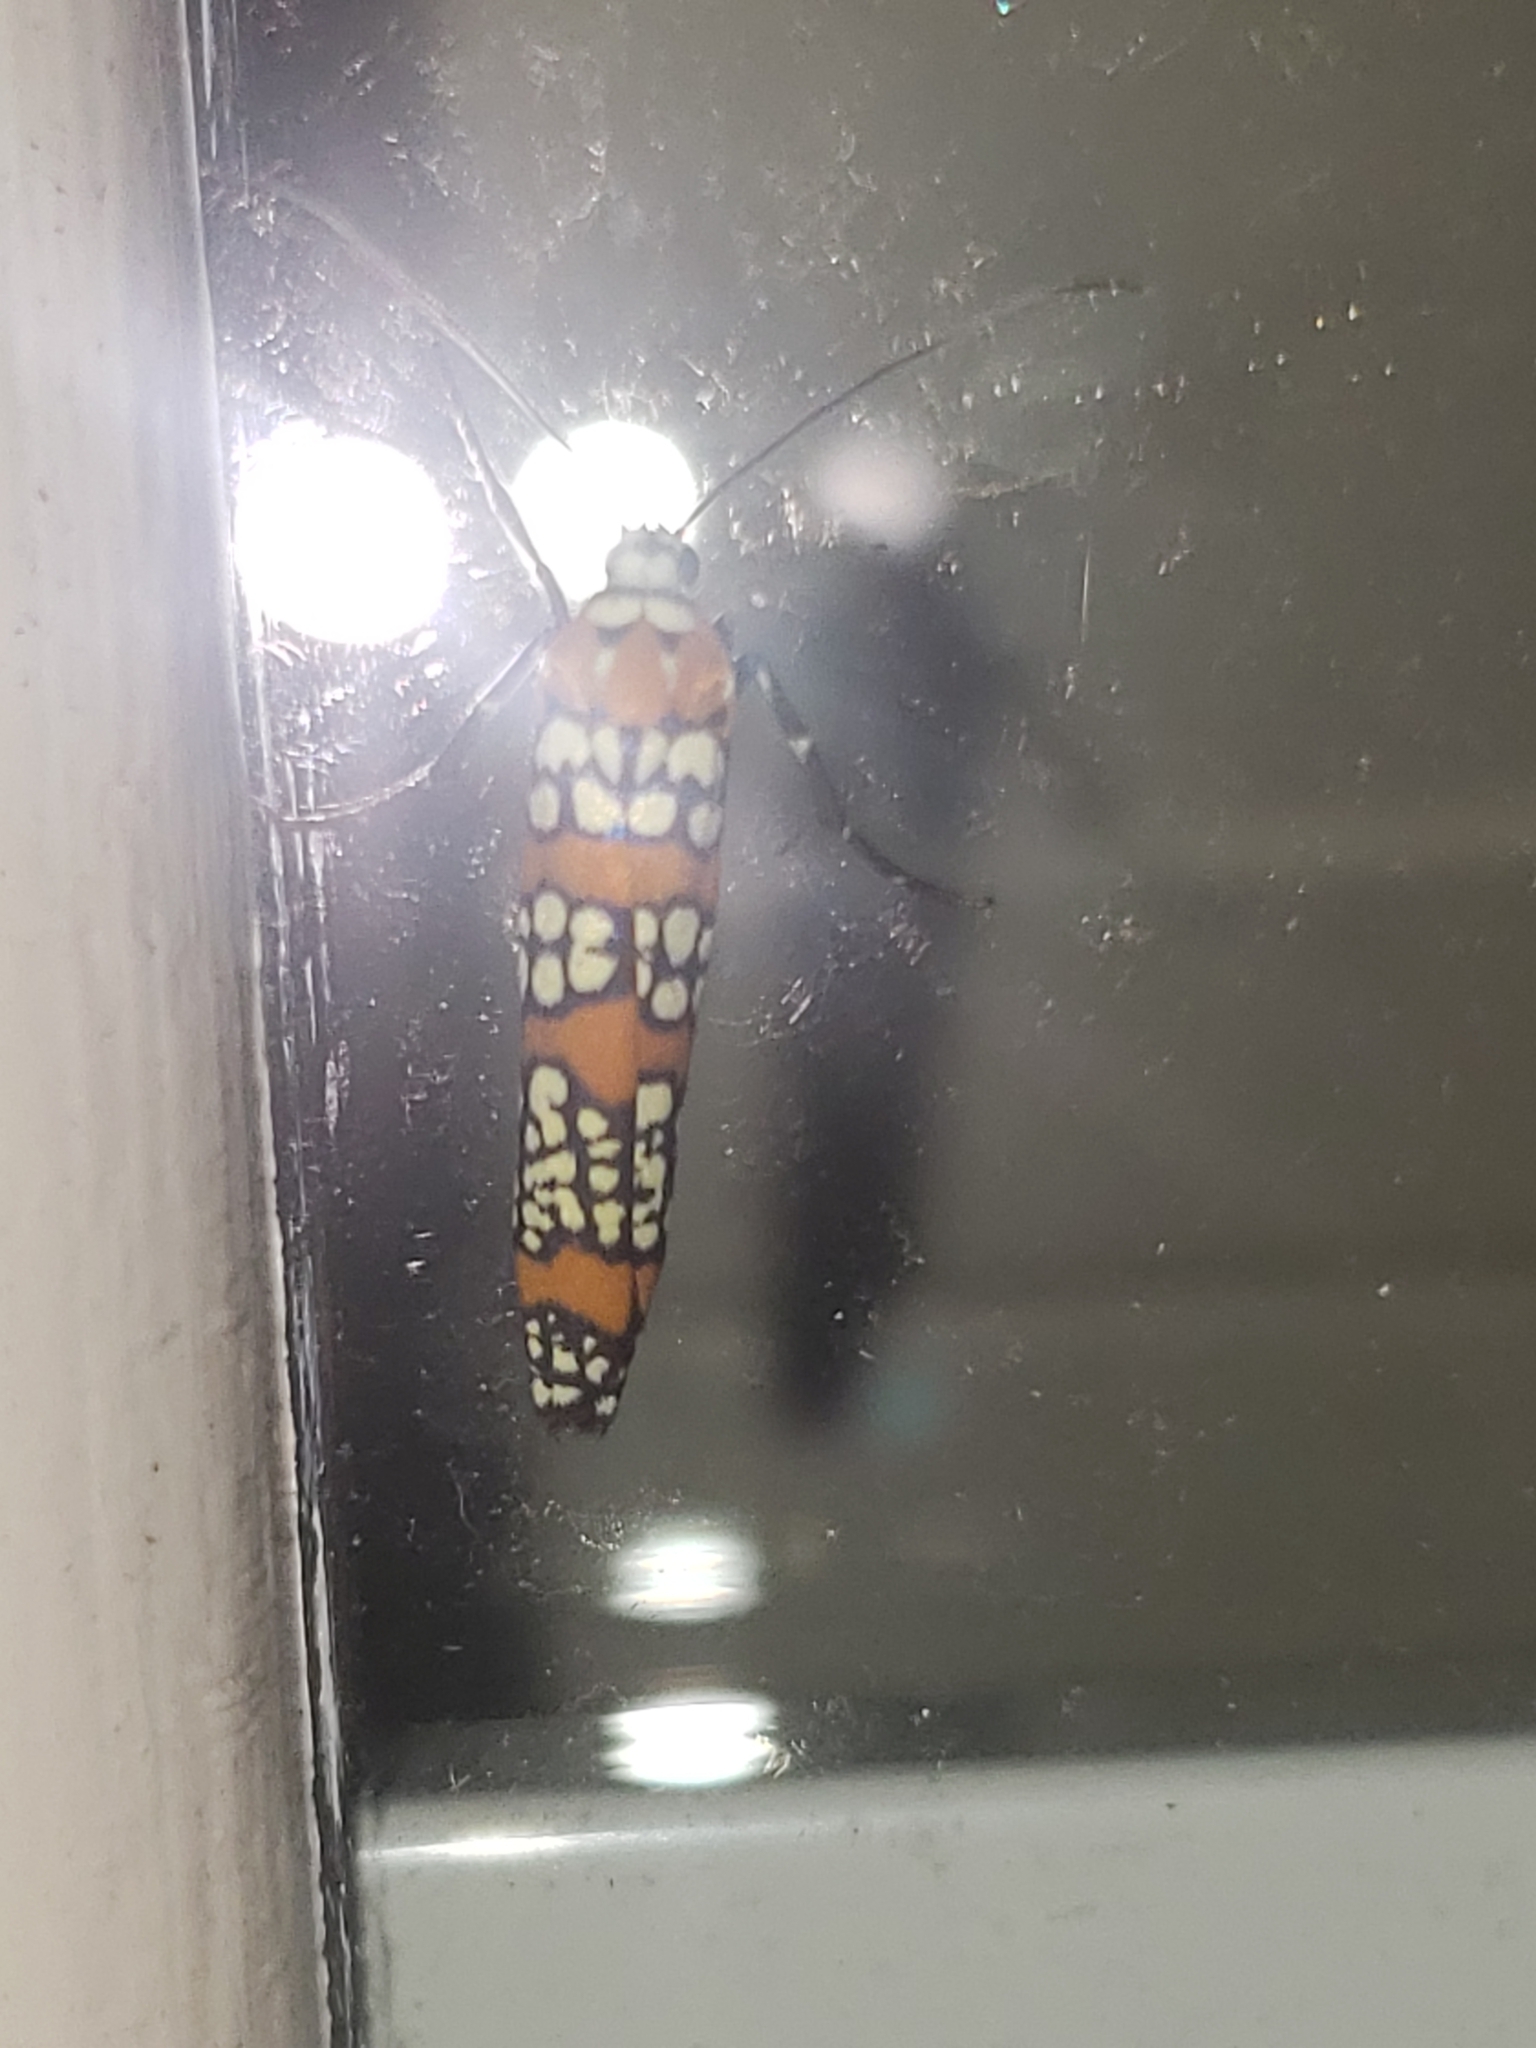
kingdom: Animalia
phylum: Arthropoda
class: Insecta
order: Lepidoptera
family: Attevidae
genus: Atteva
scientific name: Atteva punctella
